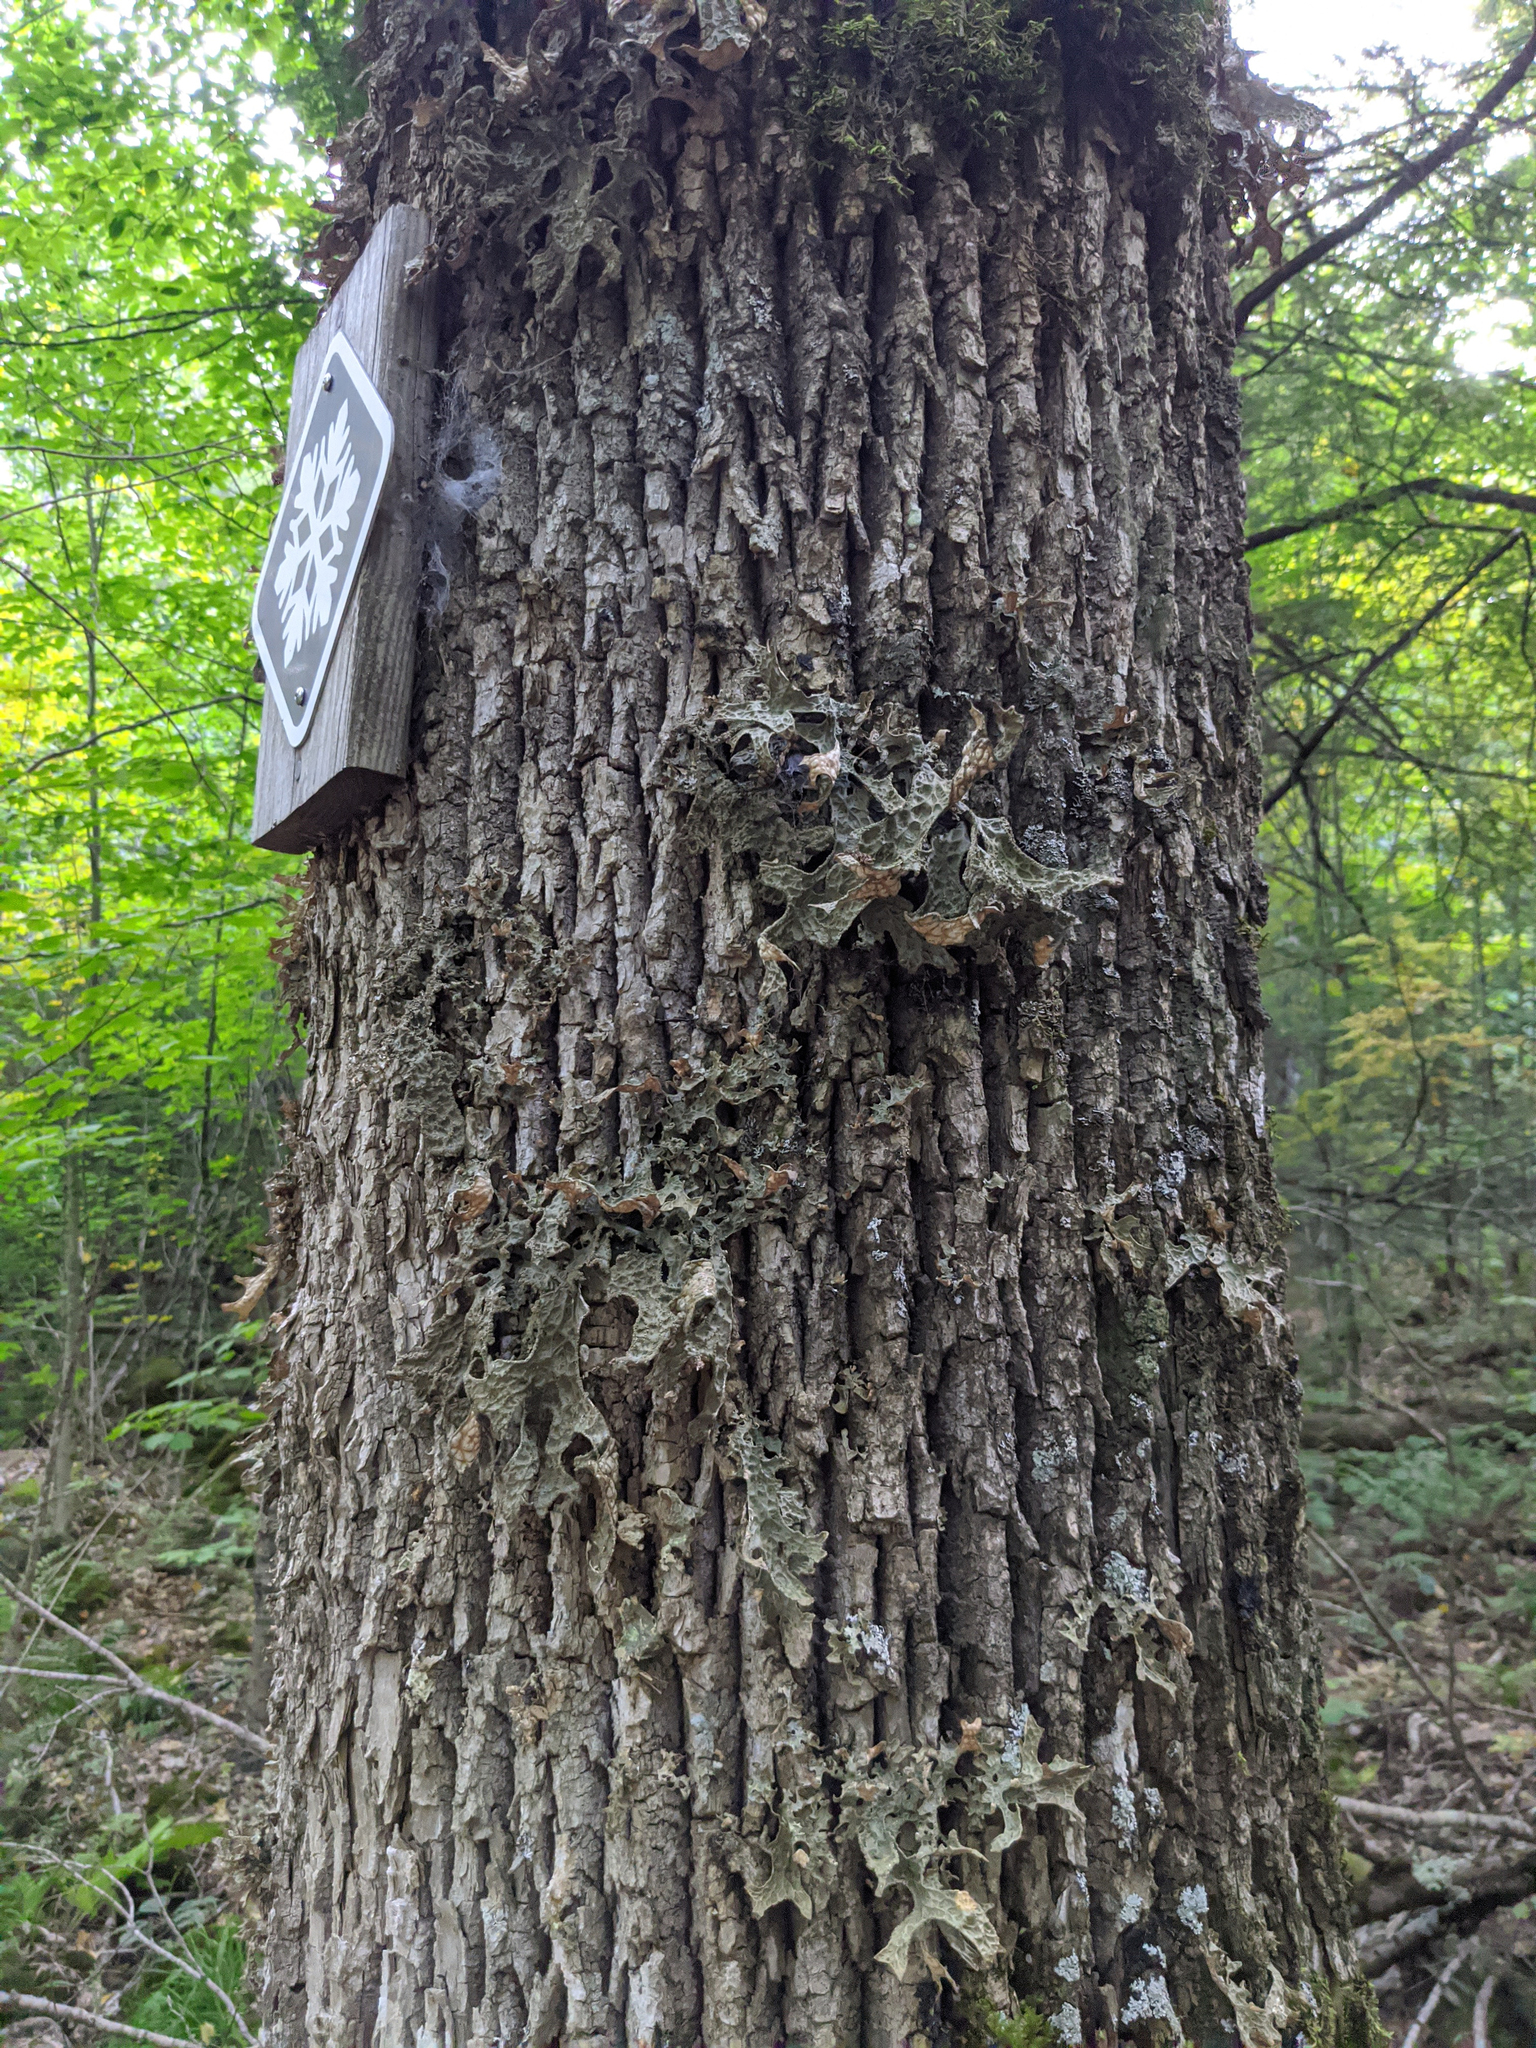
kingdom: Fungi
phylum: Ascomycota
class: Lecanoromycetes
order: Peltigerales
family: Lobariaceae
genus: Lobaria
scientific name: Lobaria pulmonaria
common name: Lungwort
